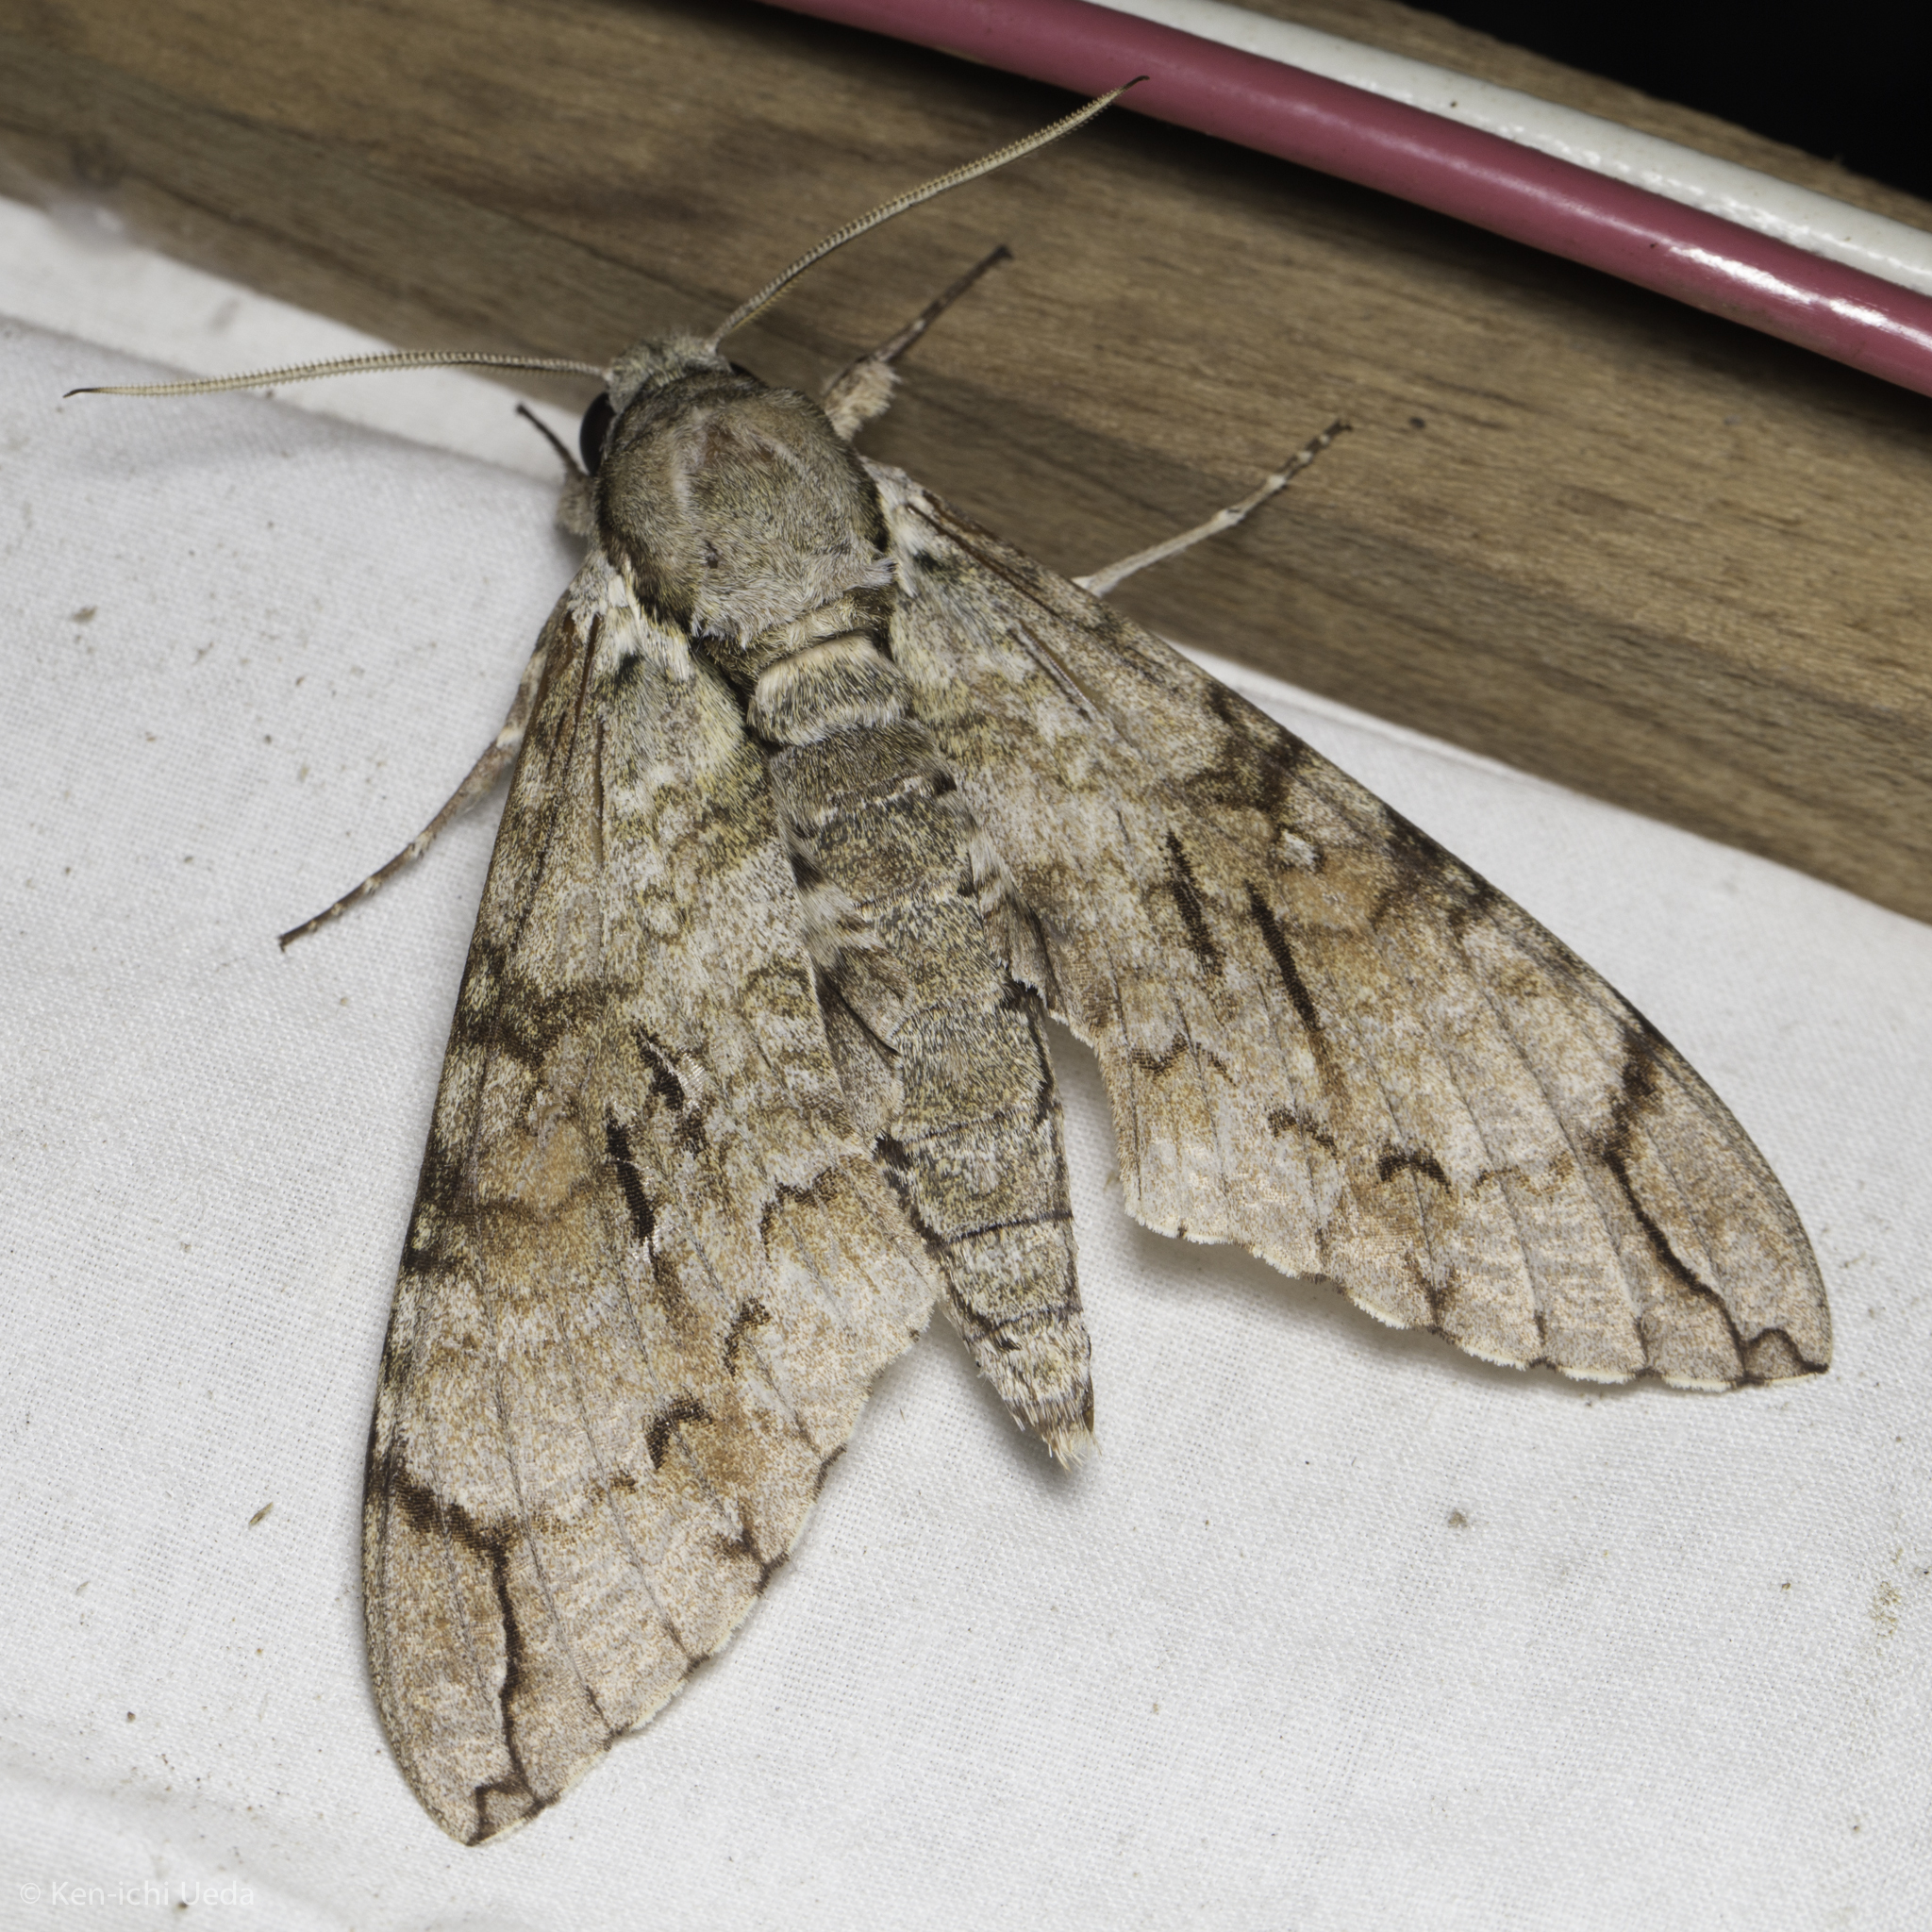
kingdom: Animalia
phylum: Arthropoda
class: Insecta
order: Lepidoptera
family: Sphingidae
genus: Manduca
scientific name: Manduca florestan
